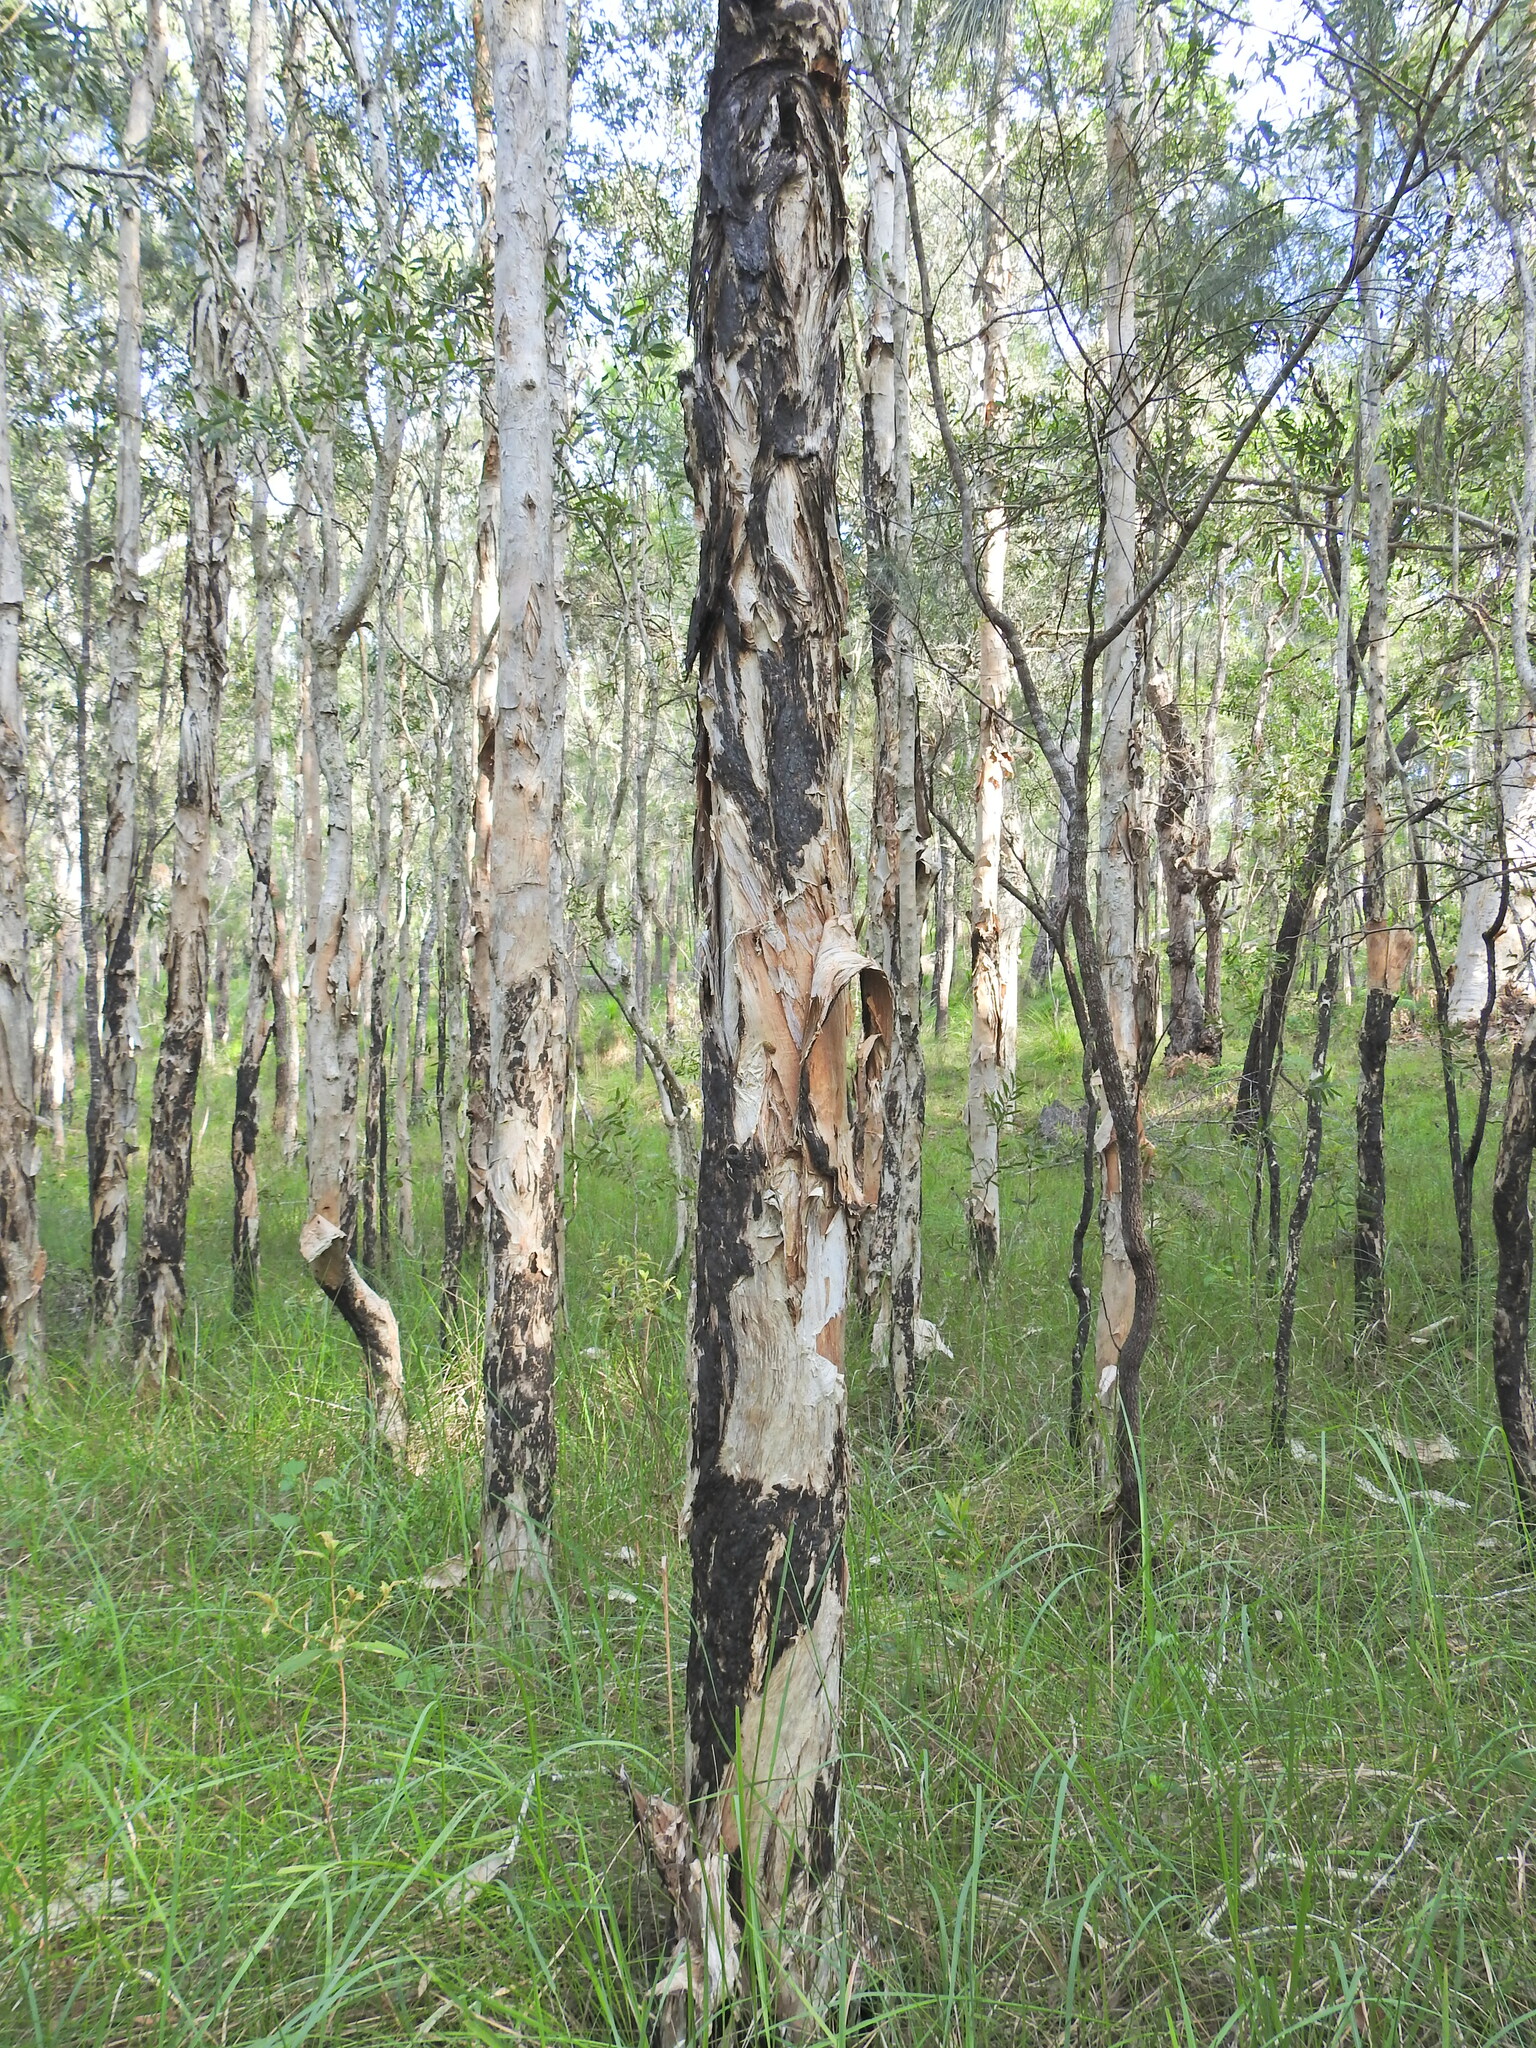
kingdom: Plantae
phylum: Tracheophyta
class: Magnoliopsida
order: Myrtales
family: Myrtaceae
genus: Melaleuca
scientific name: Melaleuca quinquenervia
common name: Punktree
